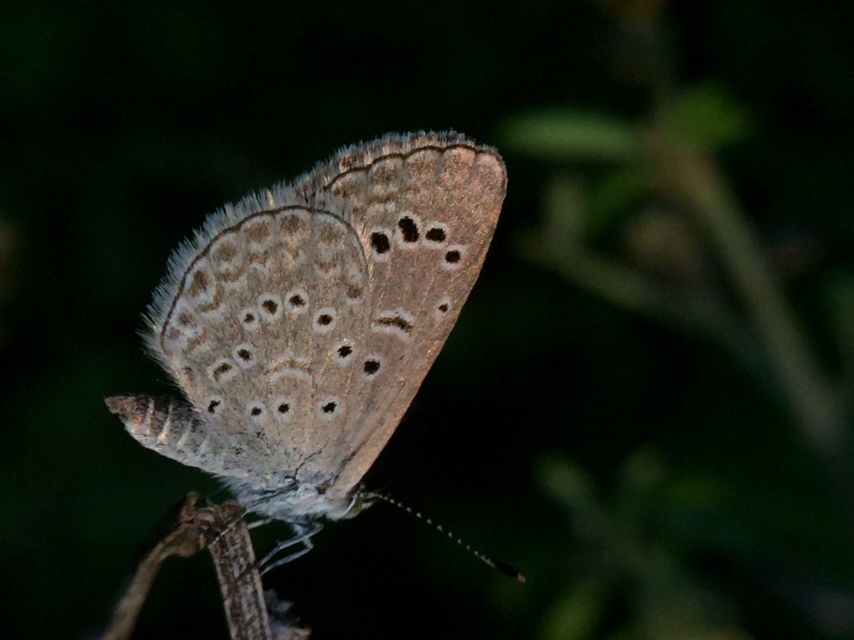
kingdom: Animalia
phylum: Arthropoda
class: Insecta
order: Lepidoptera
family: Lycaenidae
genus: Zizeeria
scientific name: Zizeeria karsandra
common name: Dark grass blue
